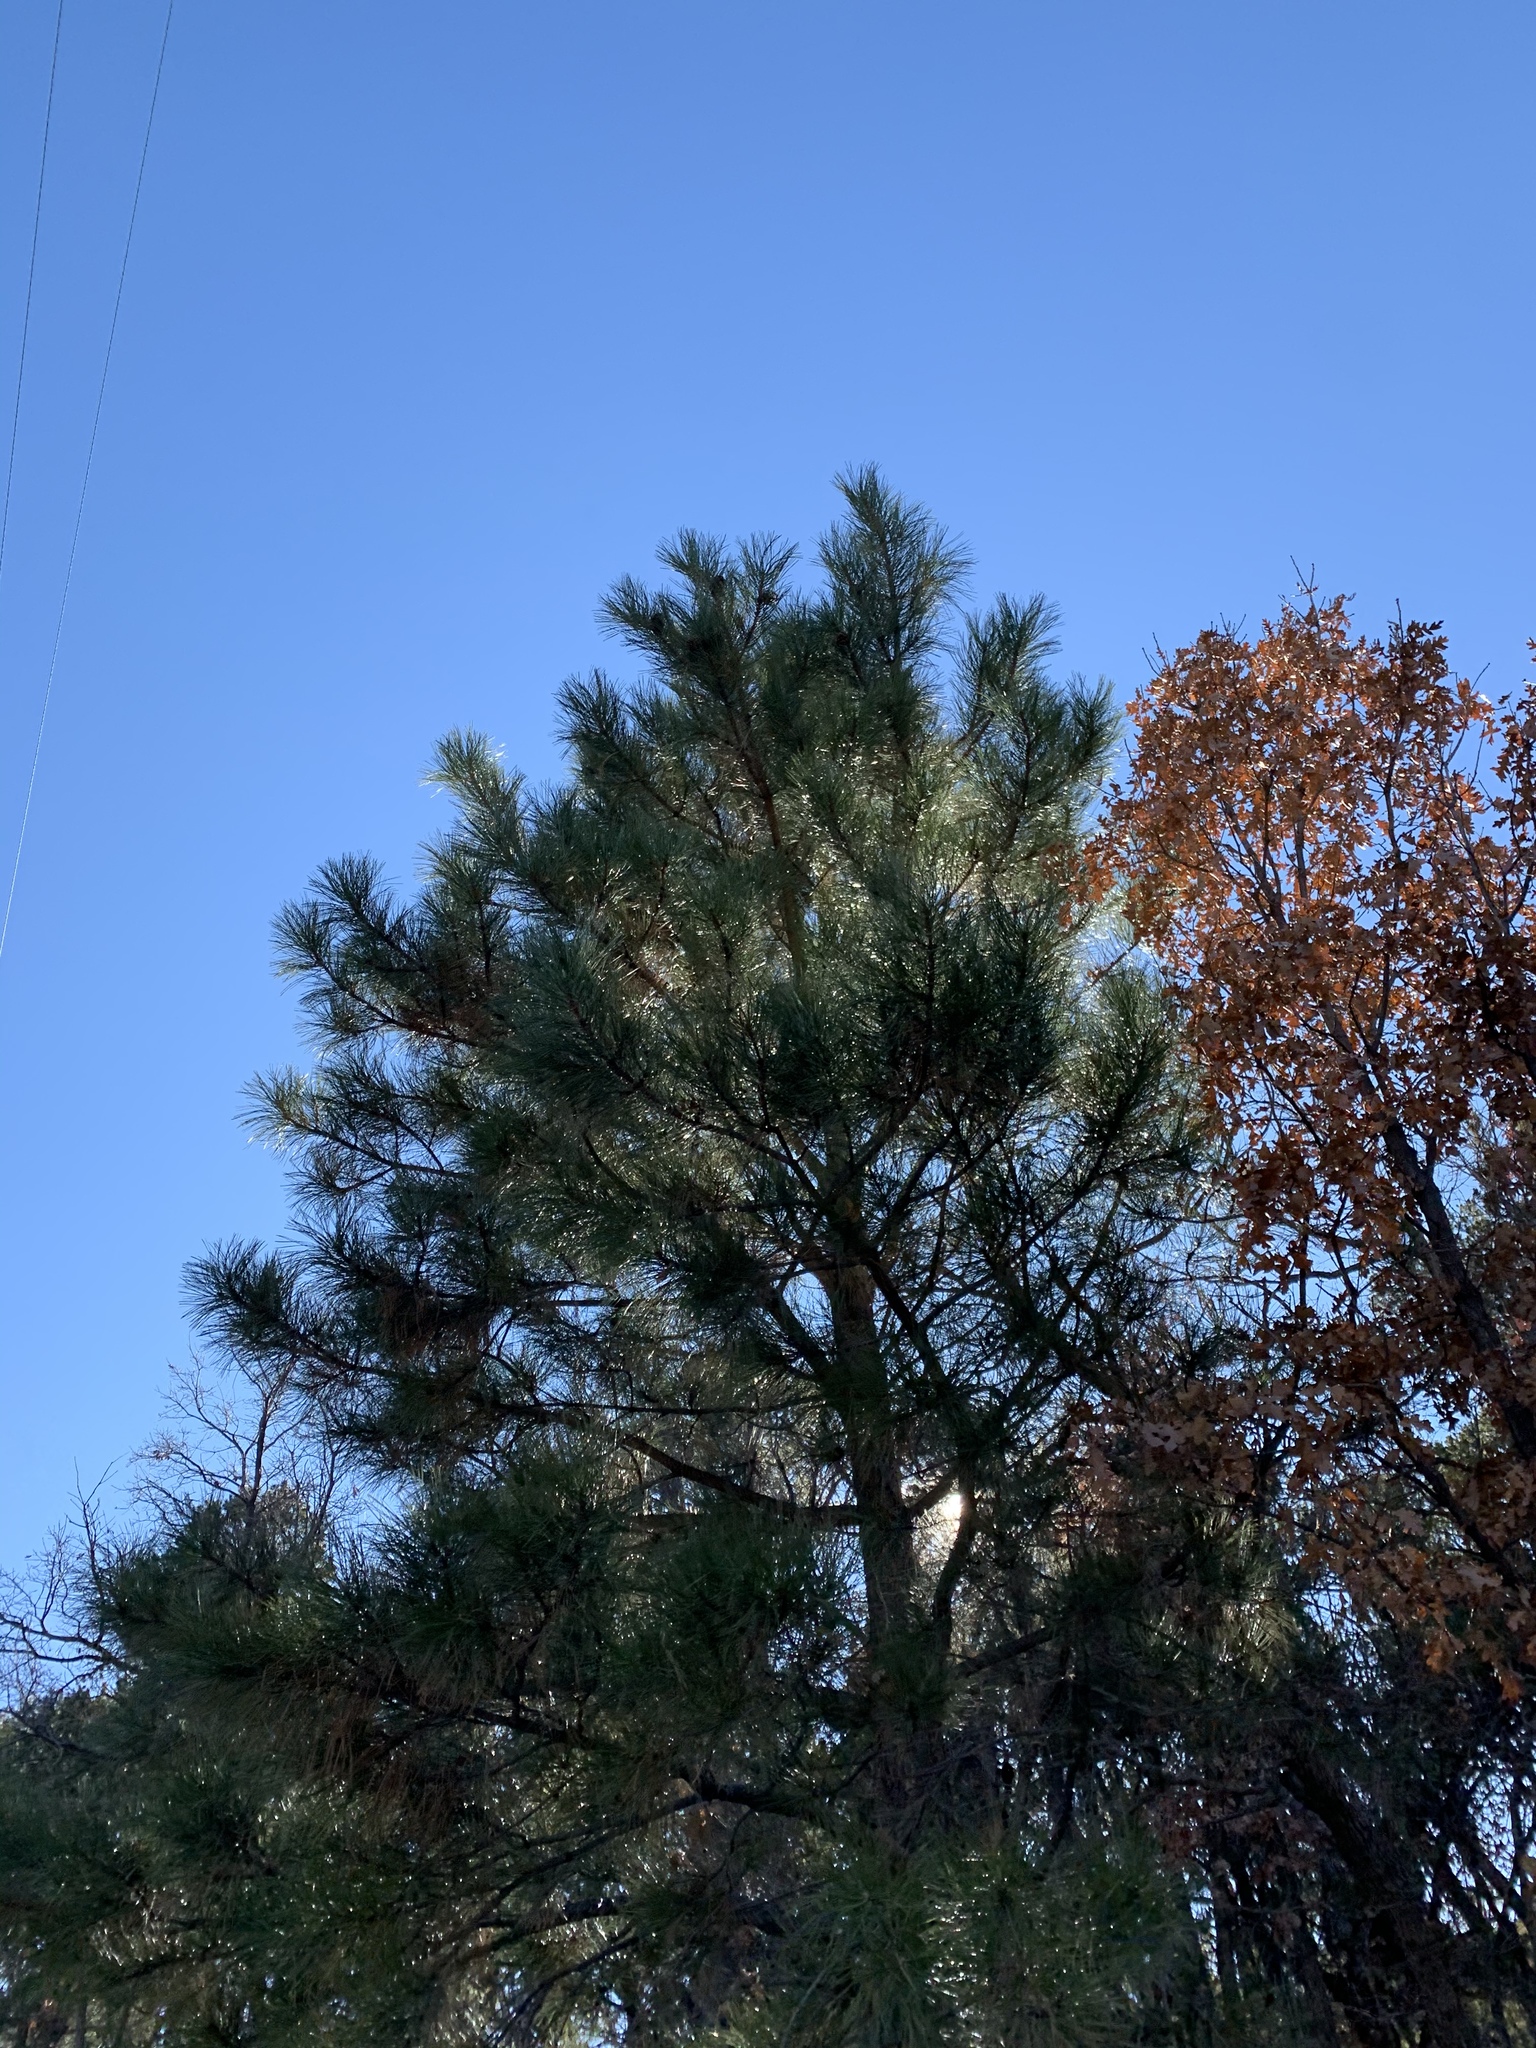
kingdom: Plantae
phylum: Tracheophyta
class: Pinopsida
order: Pinales
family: Pinaceae
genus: Pinus
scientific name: Pinus ponderosa
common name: Western yellow-pine
